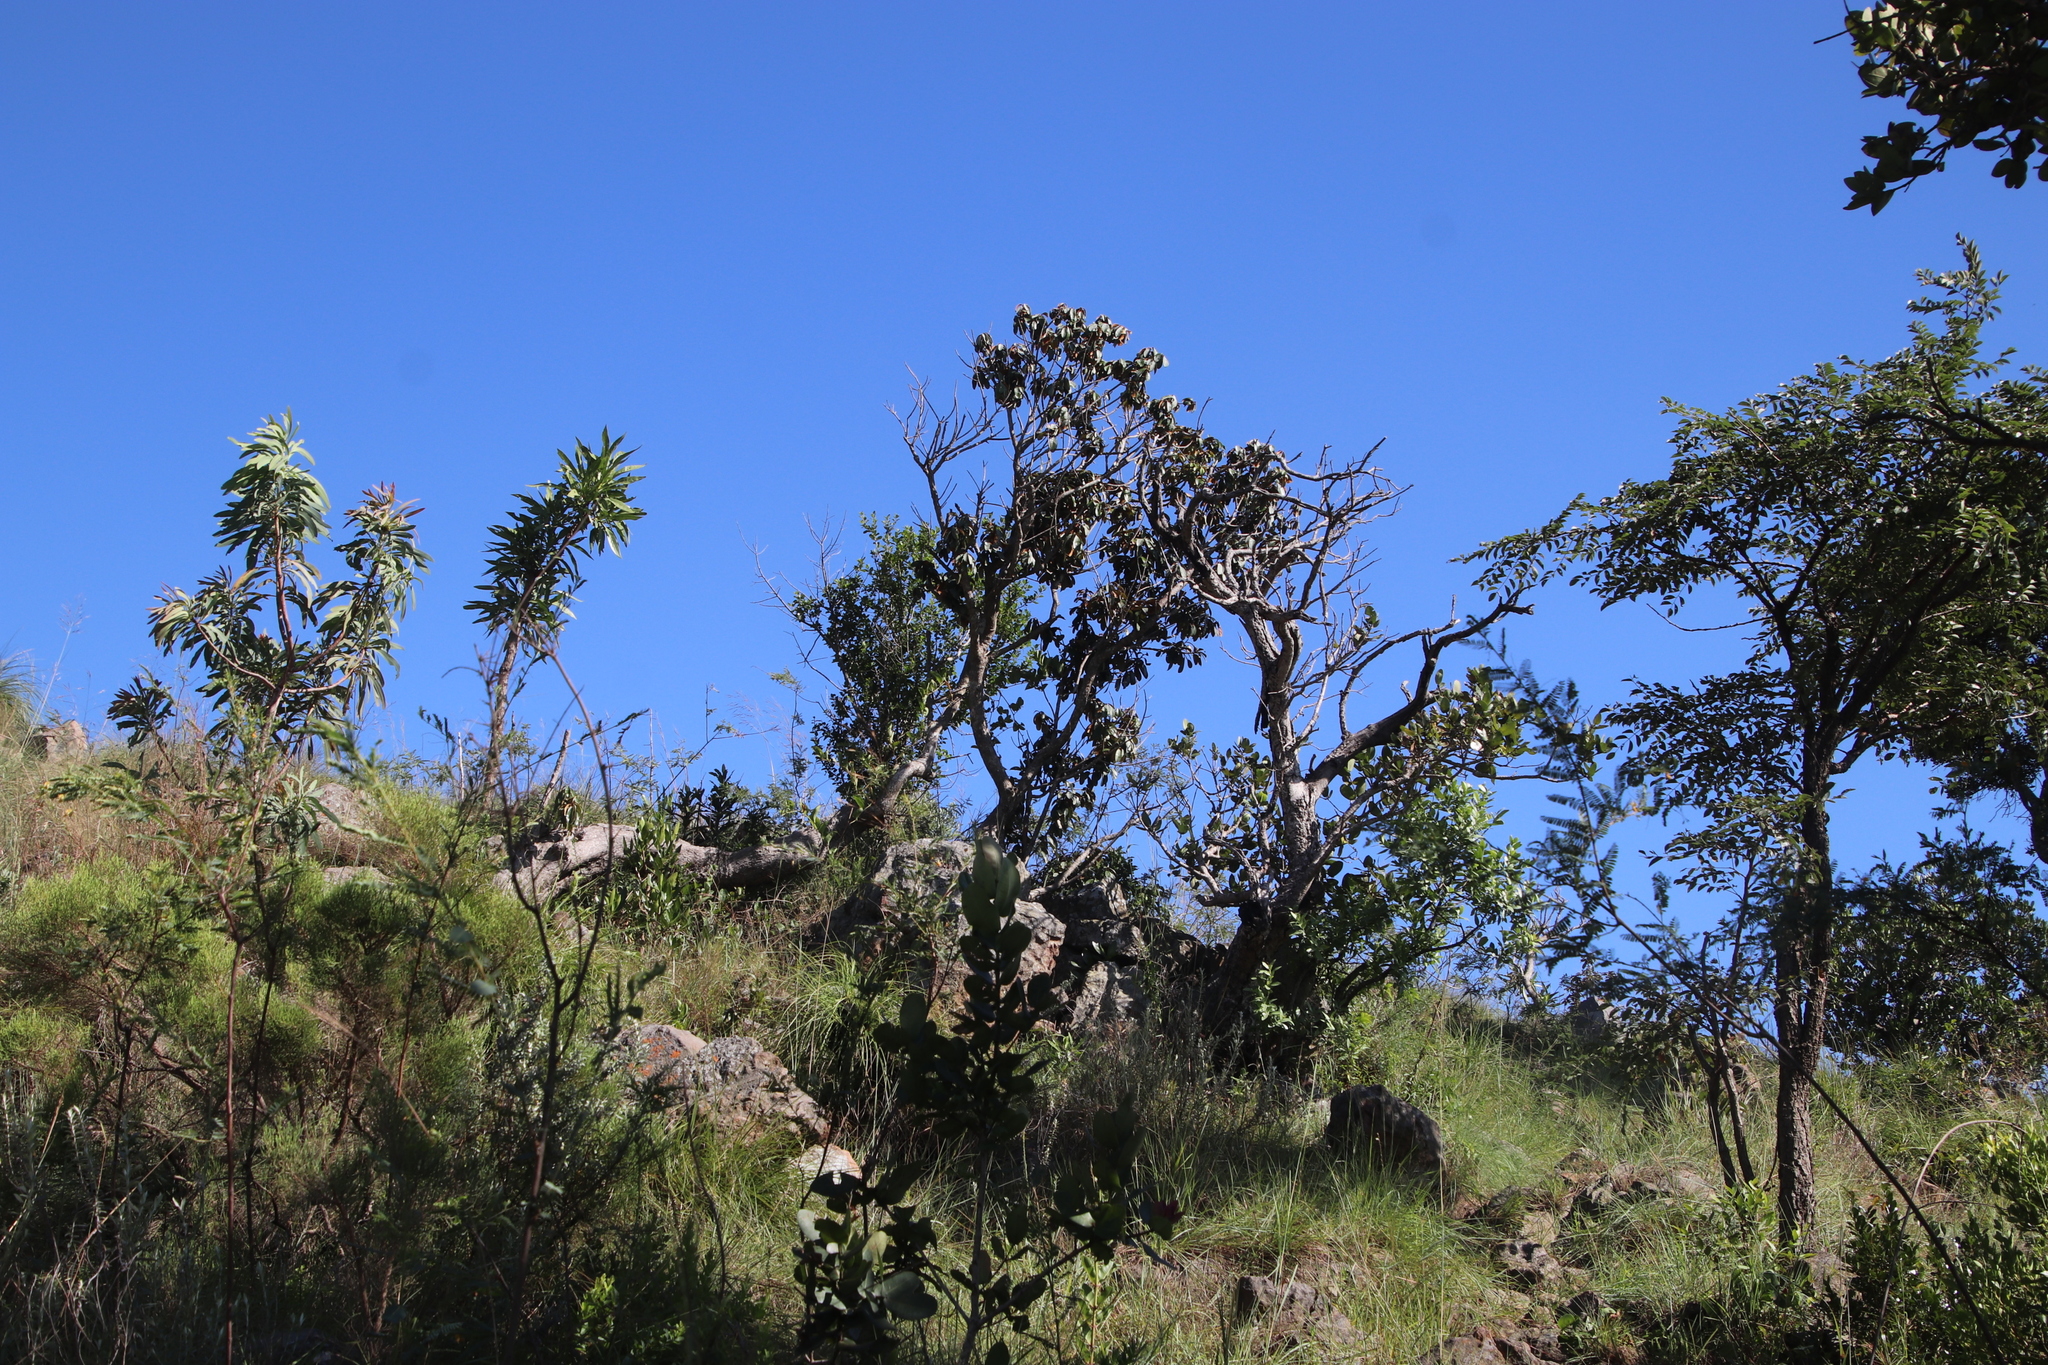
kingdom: Plantae
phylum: Tracheophyta
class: Magnoliopsida
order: Ericales
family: Sapotaceae
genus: Englerophytum
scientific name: Englerophytum magalismontanum
